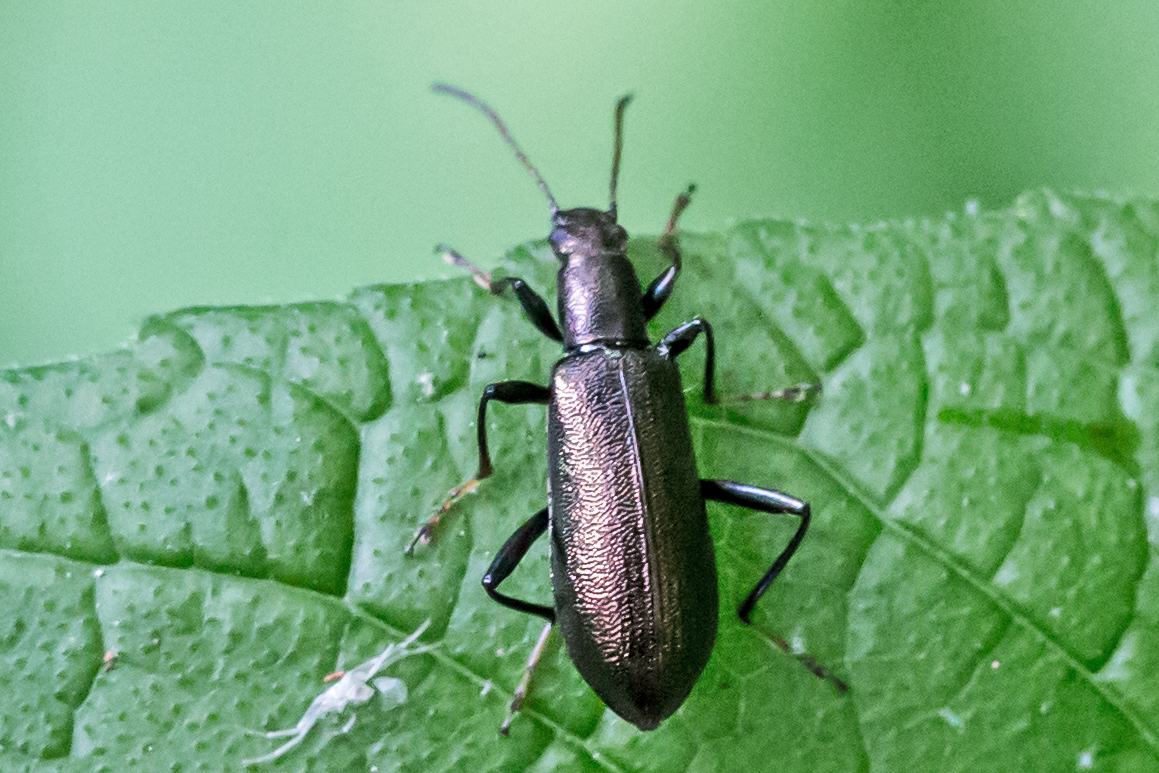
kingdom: Animalia
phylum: Arthropoda
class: Insecta
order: Coleoptera
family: Tenebrionidae
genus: Arthromacra
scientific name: Arthromacra aenea
